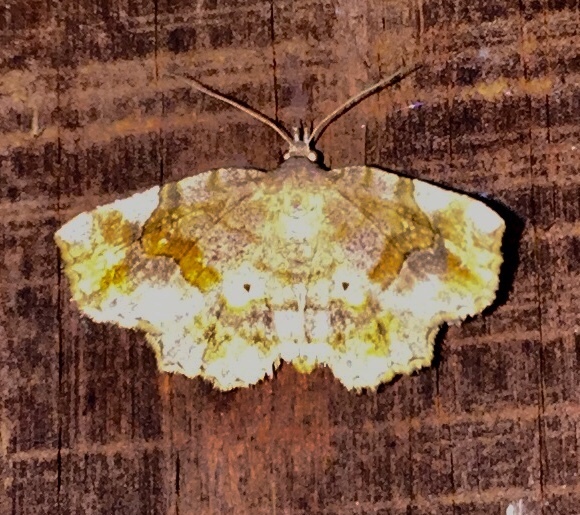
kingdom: Animalia
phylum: Arthropoda
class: Insecta
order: Lepidoptera
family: Erebidae
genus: Pangrapta
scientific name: Pangrapta decoralis
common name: Decorated owlet
